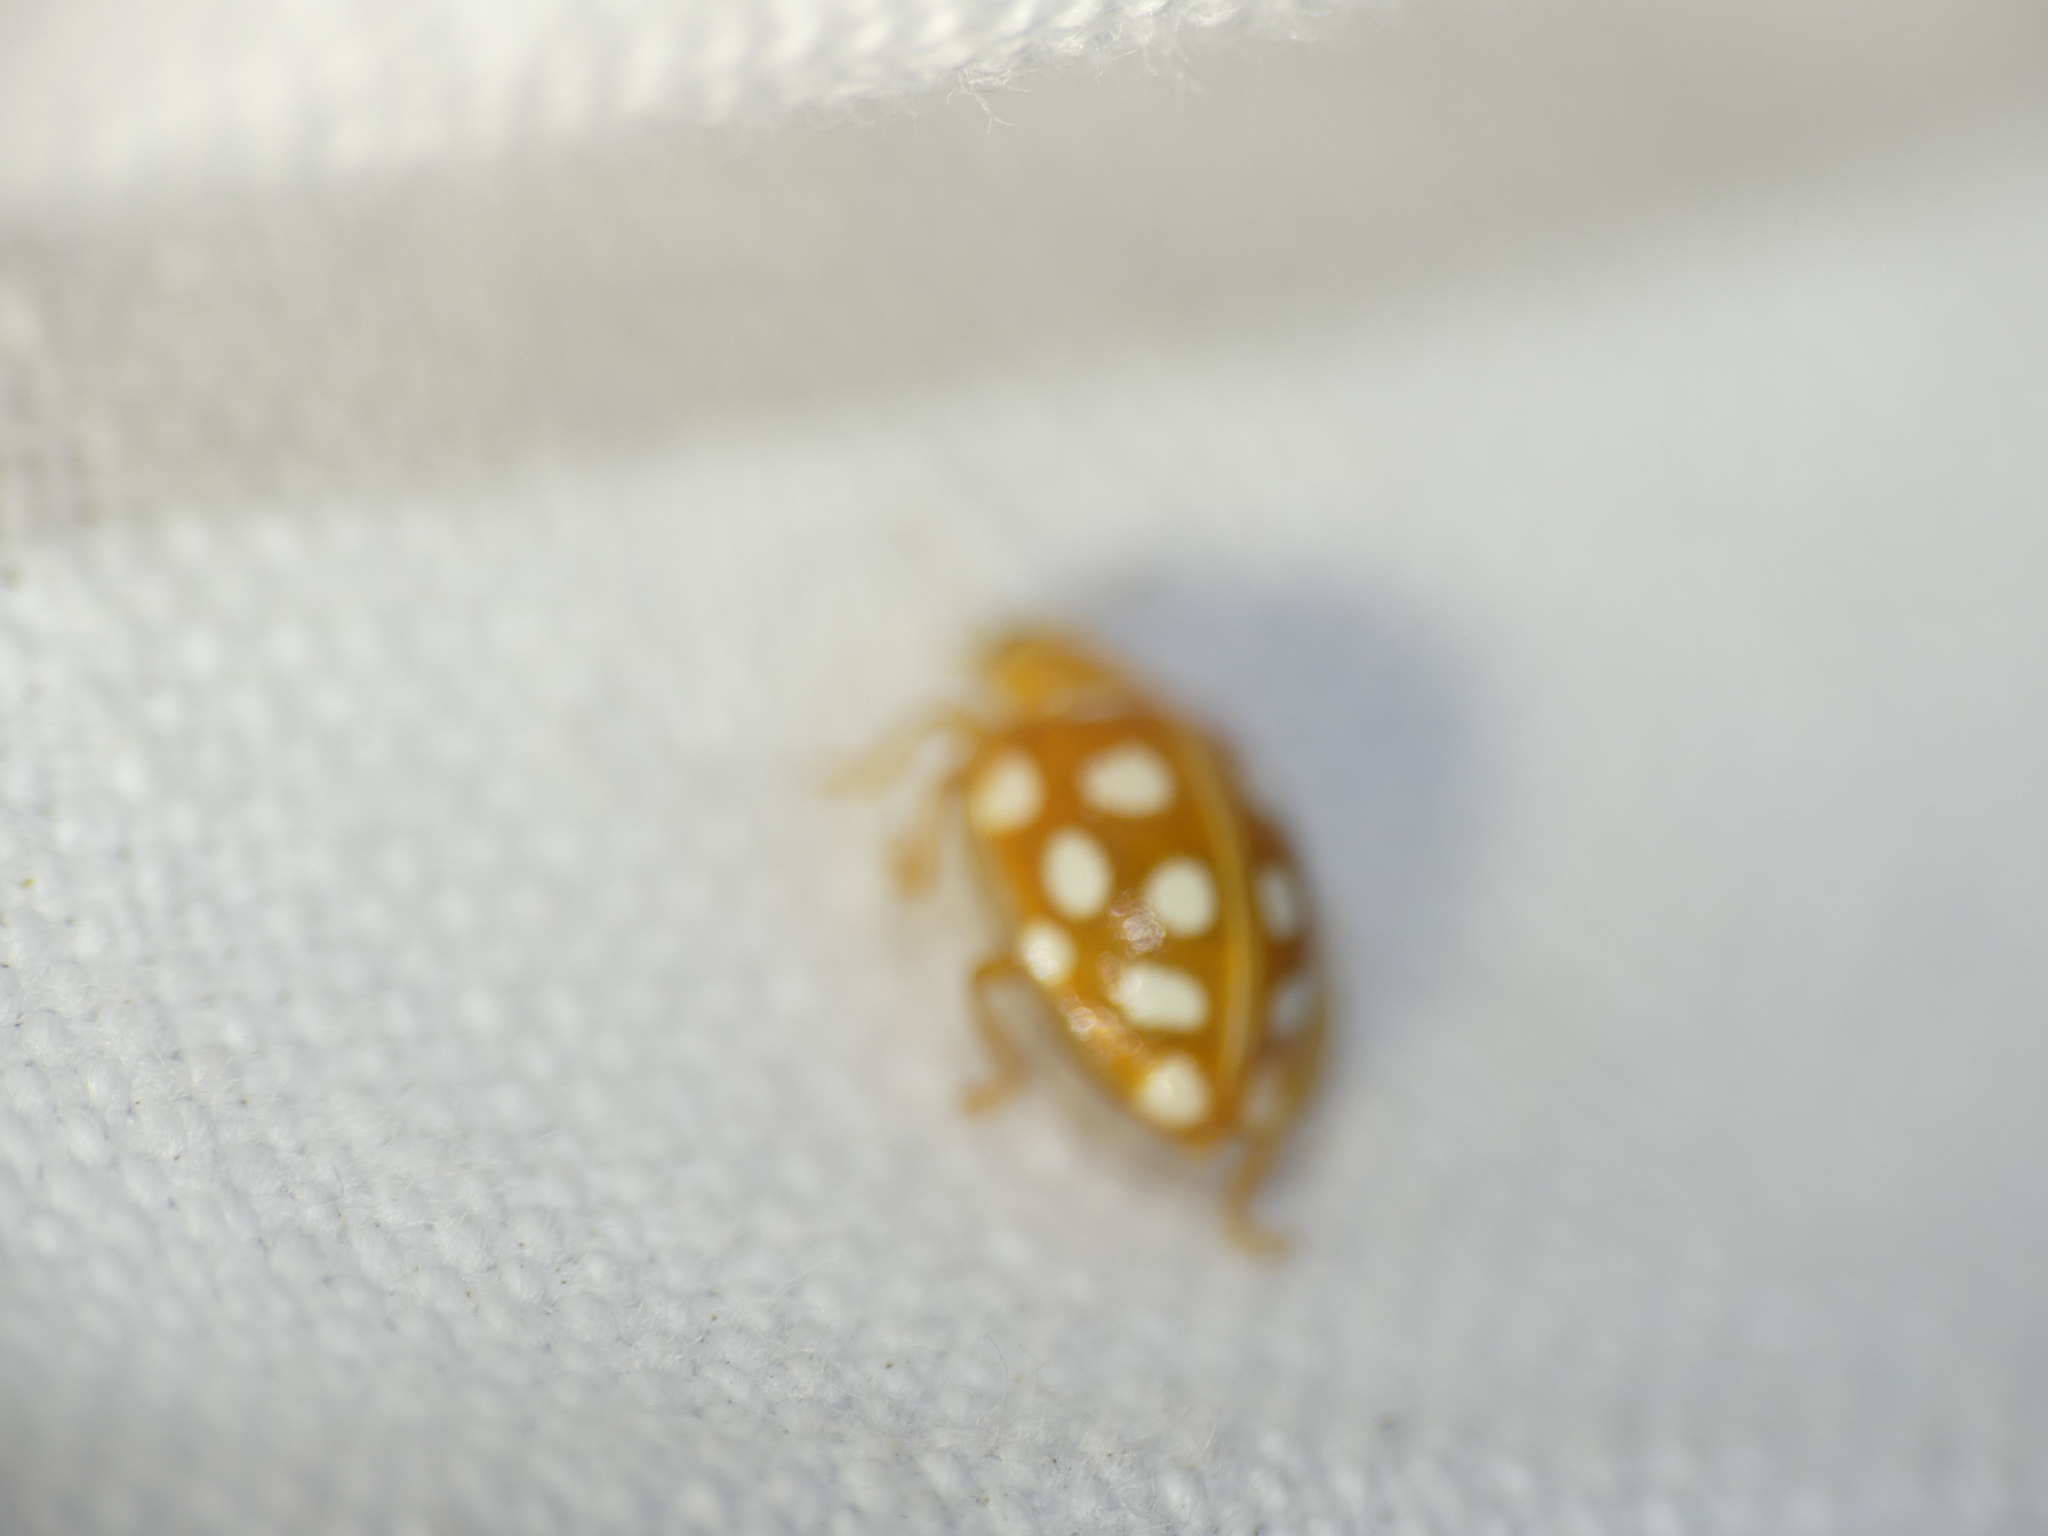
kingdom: Animalia
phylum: Arthropoda
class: Insecta
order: Coleoptera
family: Coccinellidae
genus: Halyzia
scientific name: Halyzia sedecimguttata
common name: Orange ladybird
